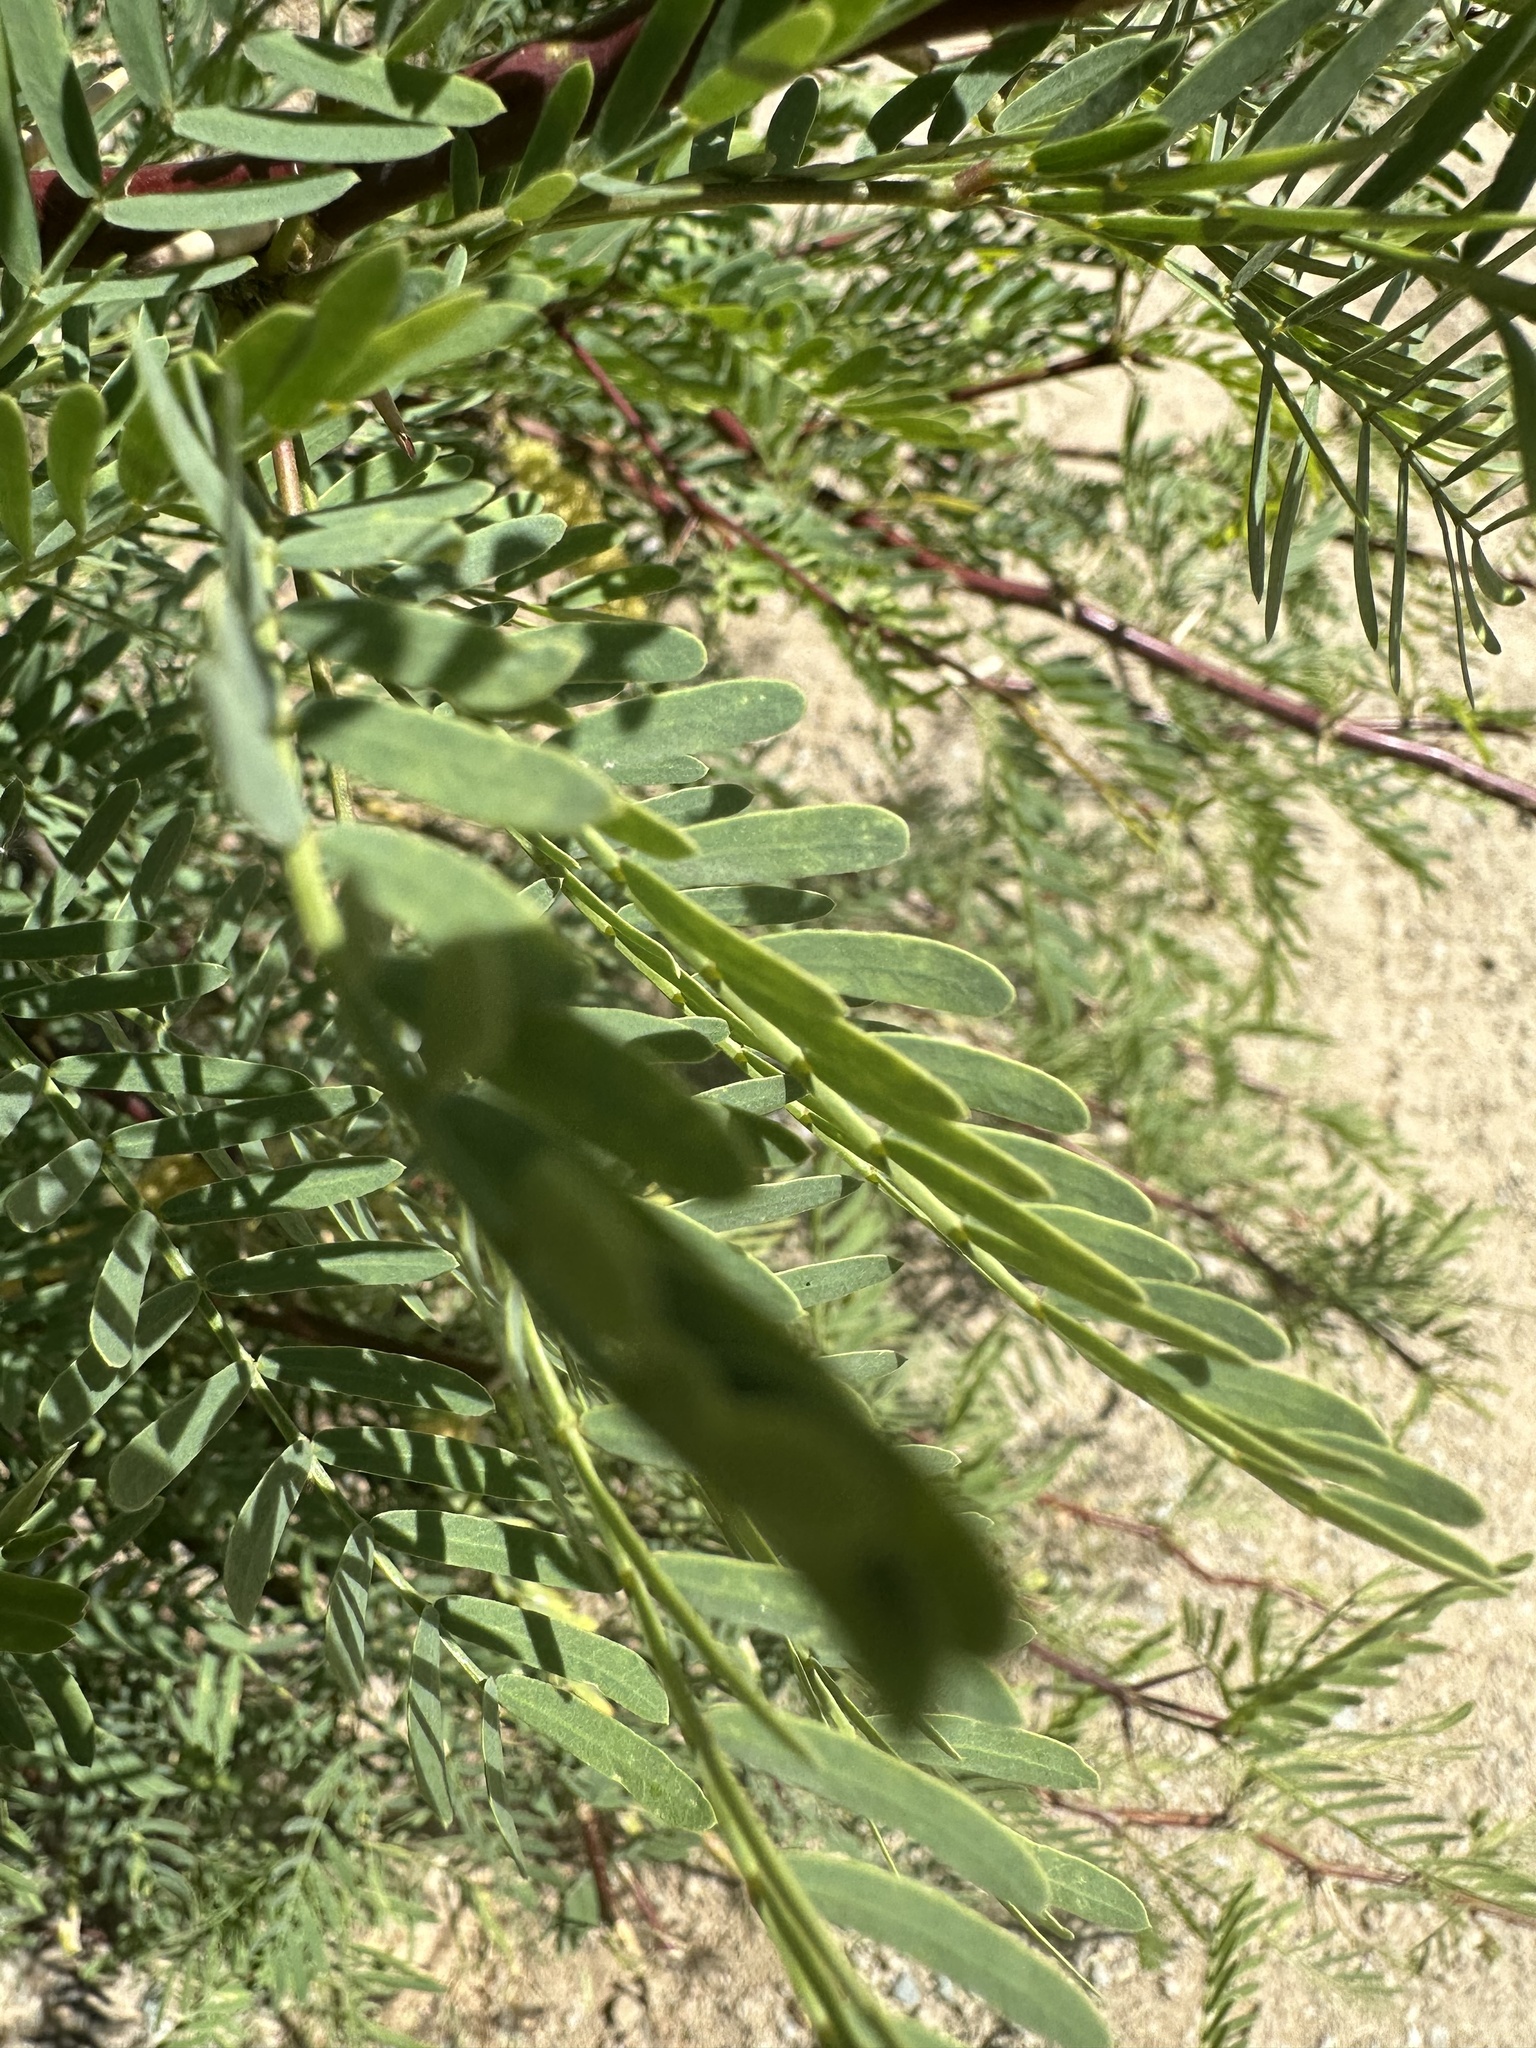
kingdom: Plantae
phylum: Tracheophyta
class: Magnoliopsida
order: Fabales
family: Fabaceae
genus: Prosopis
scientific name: Prosopis pubescens
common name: Screw-bean
